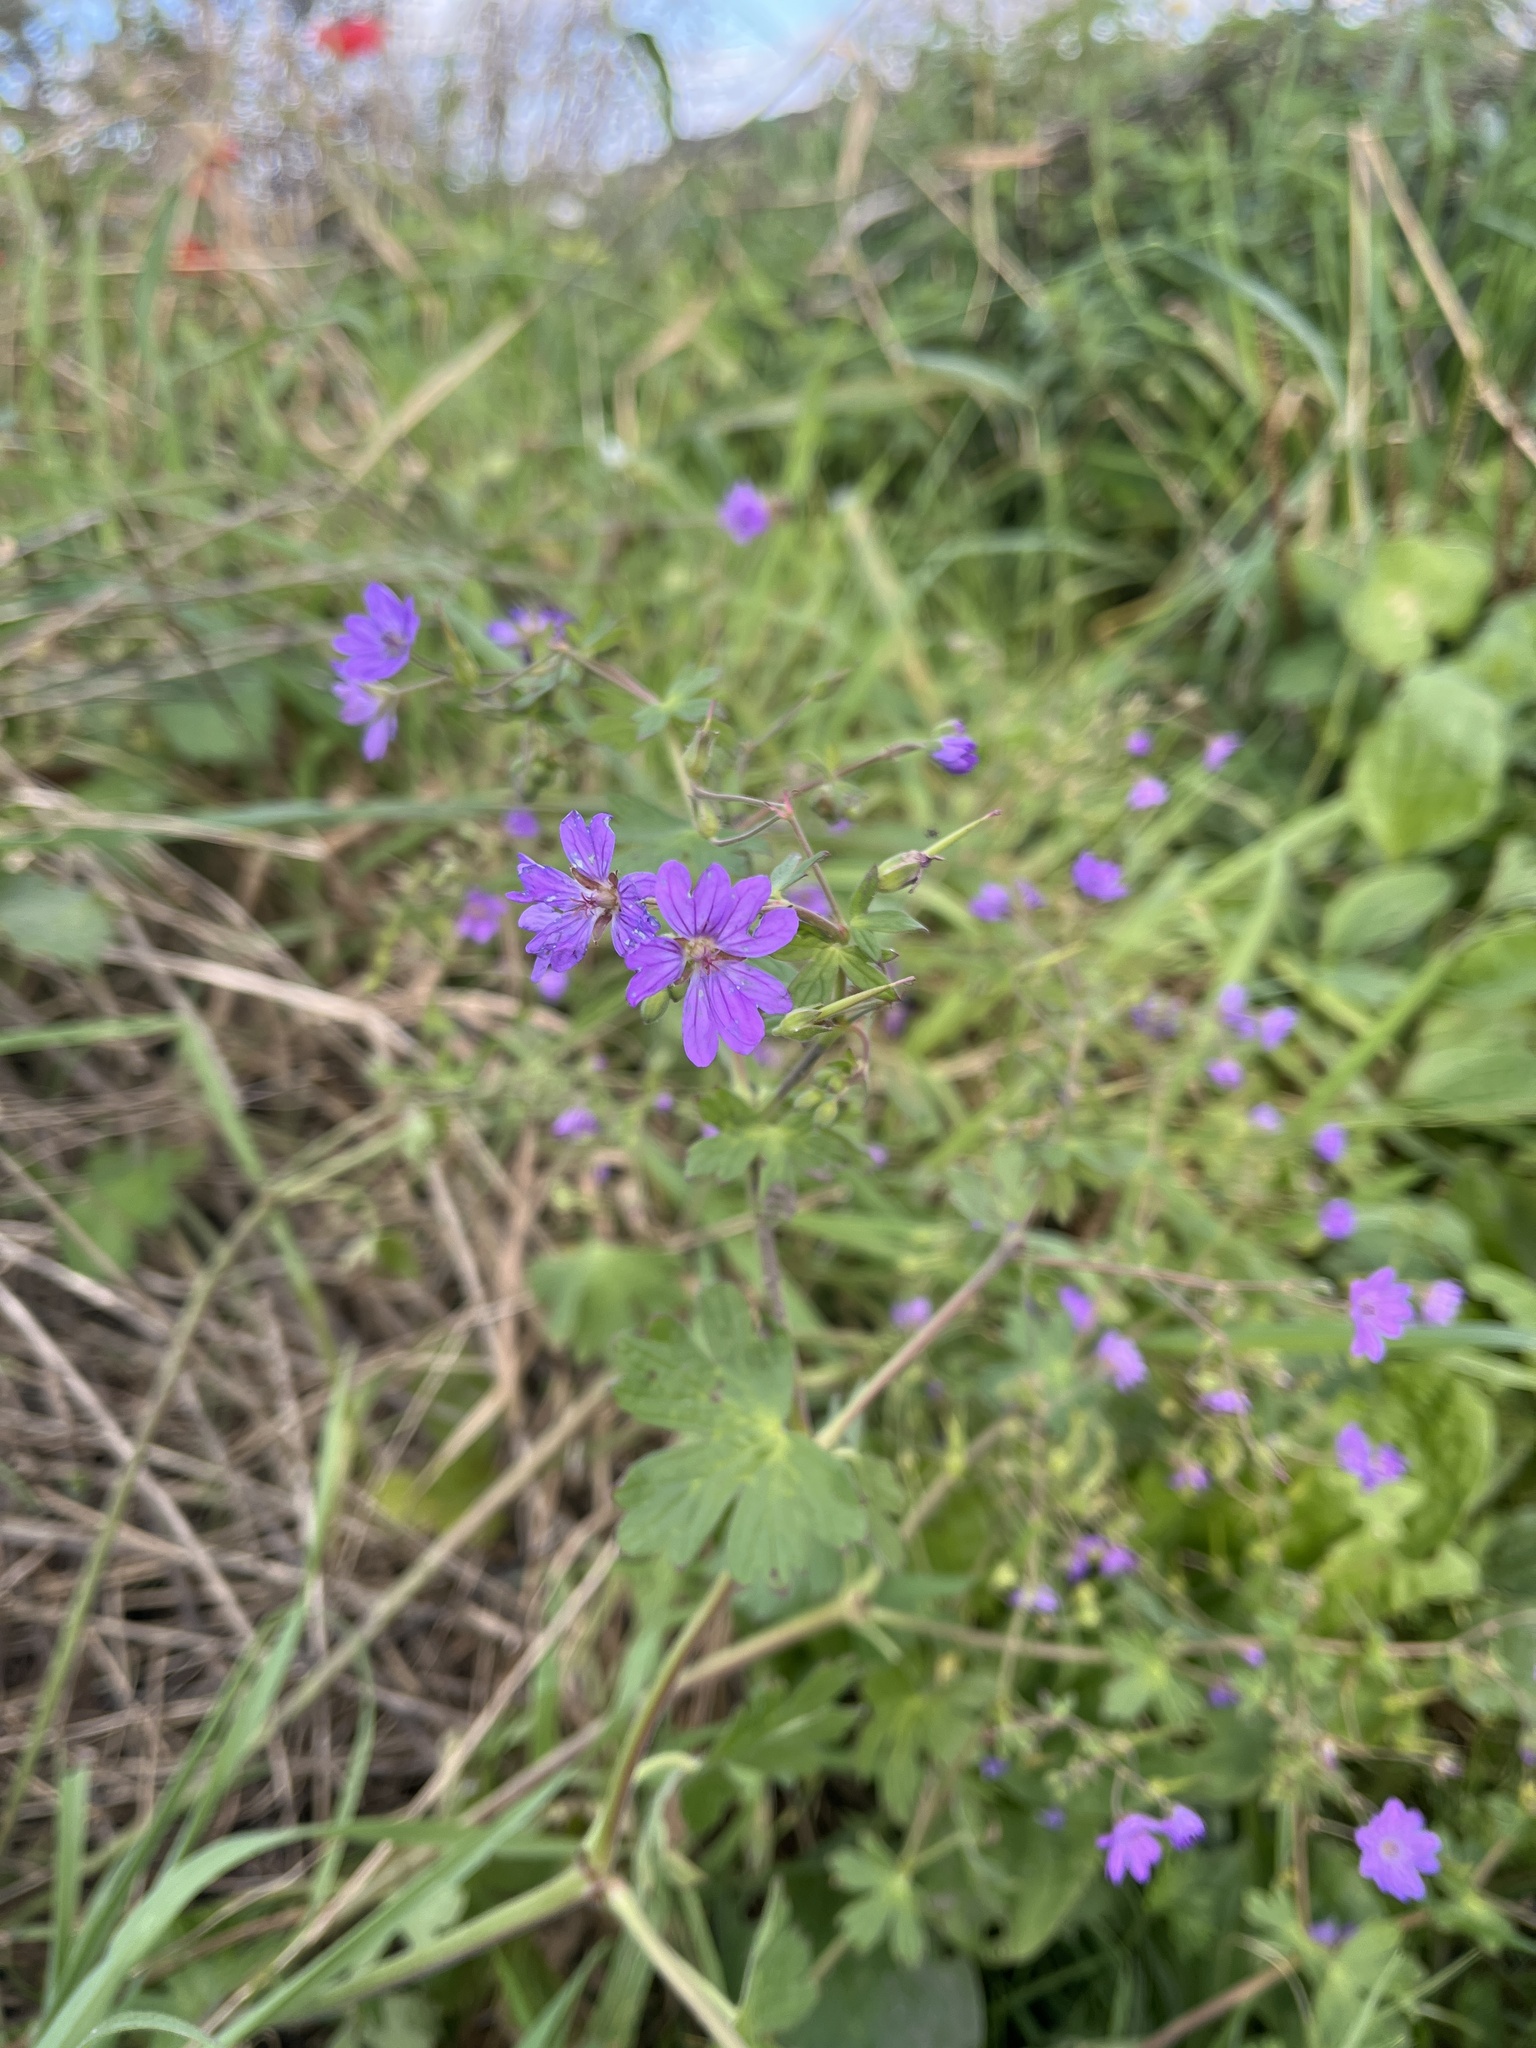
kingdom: Plantae
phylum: Tracheophyta
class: Magnoliopsida
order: Geraniales
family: Geraniaceae
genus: Geranium
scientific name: Geranium pyrenaicum
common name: Hedgerow crane's-bill
